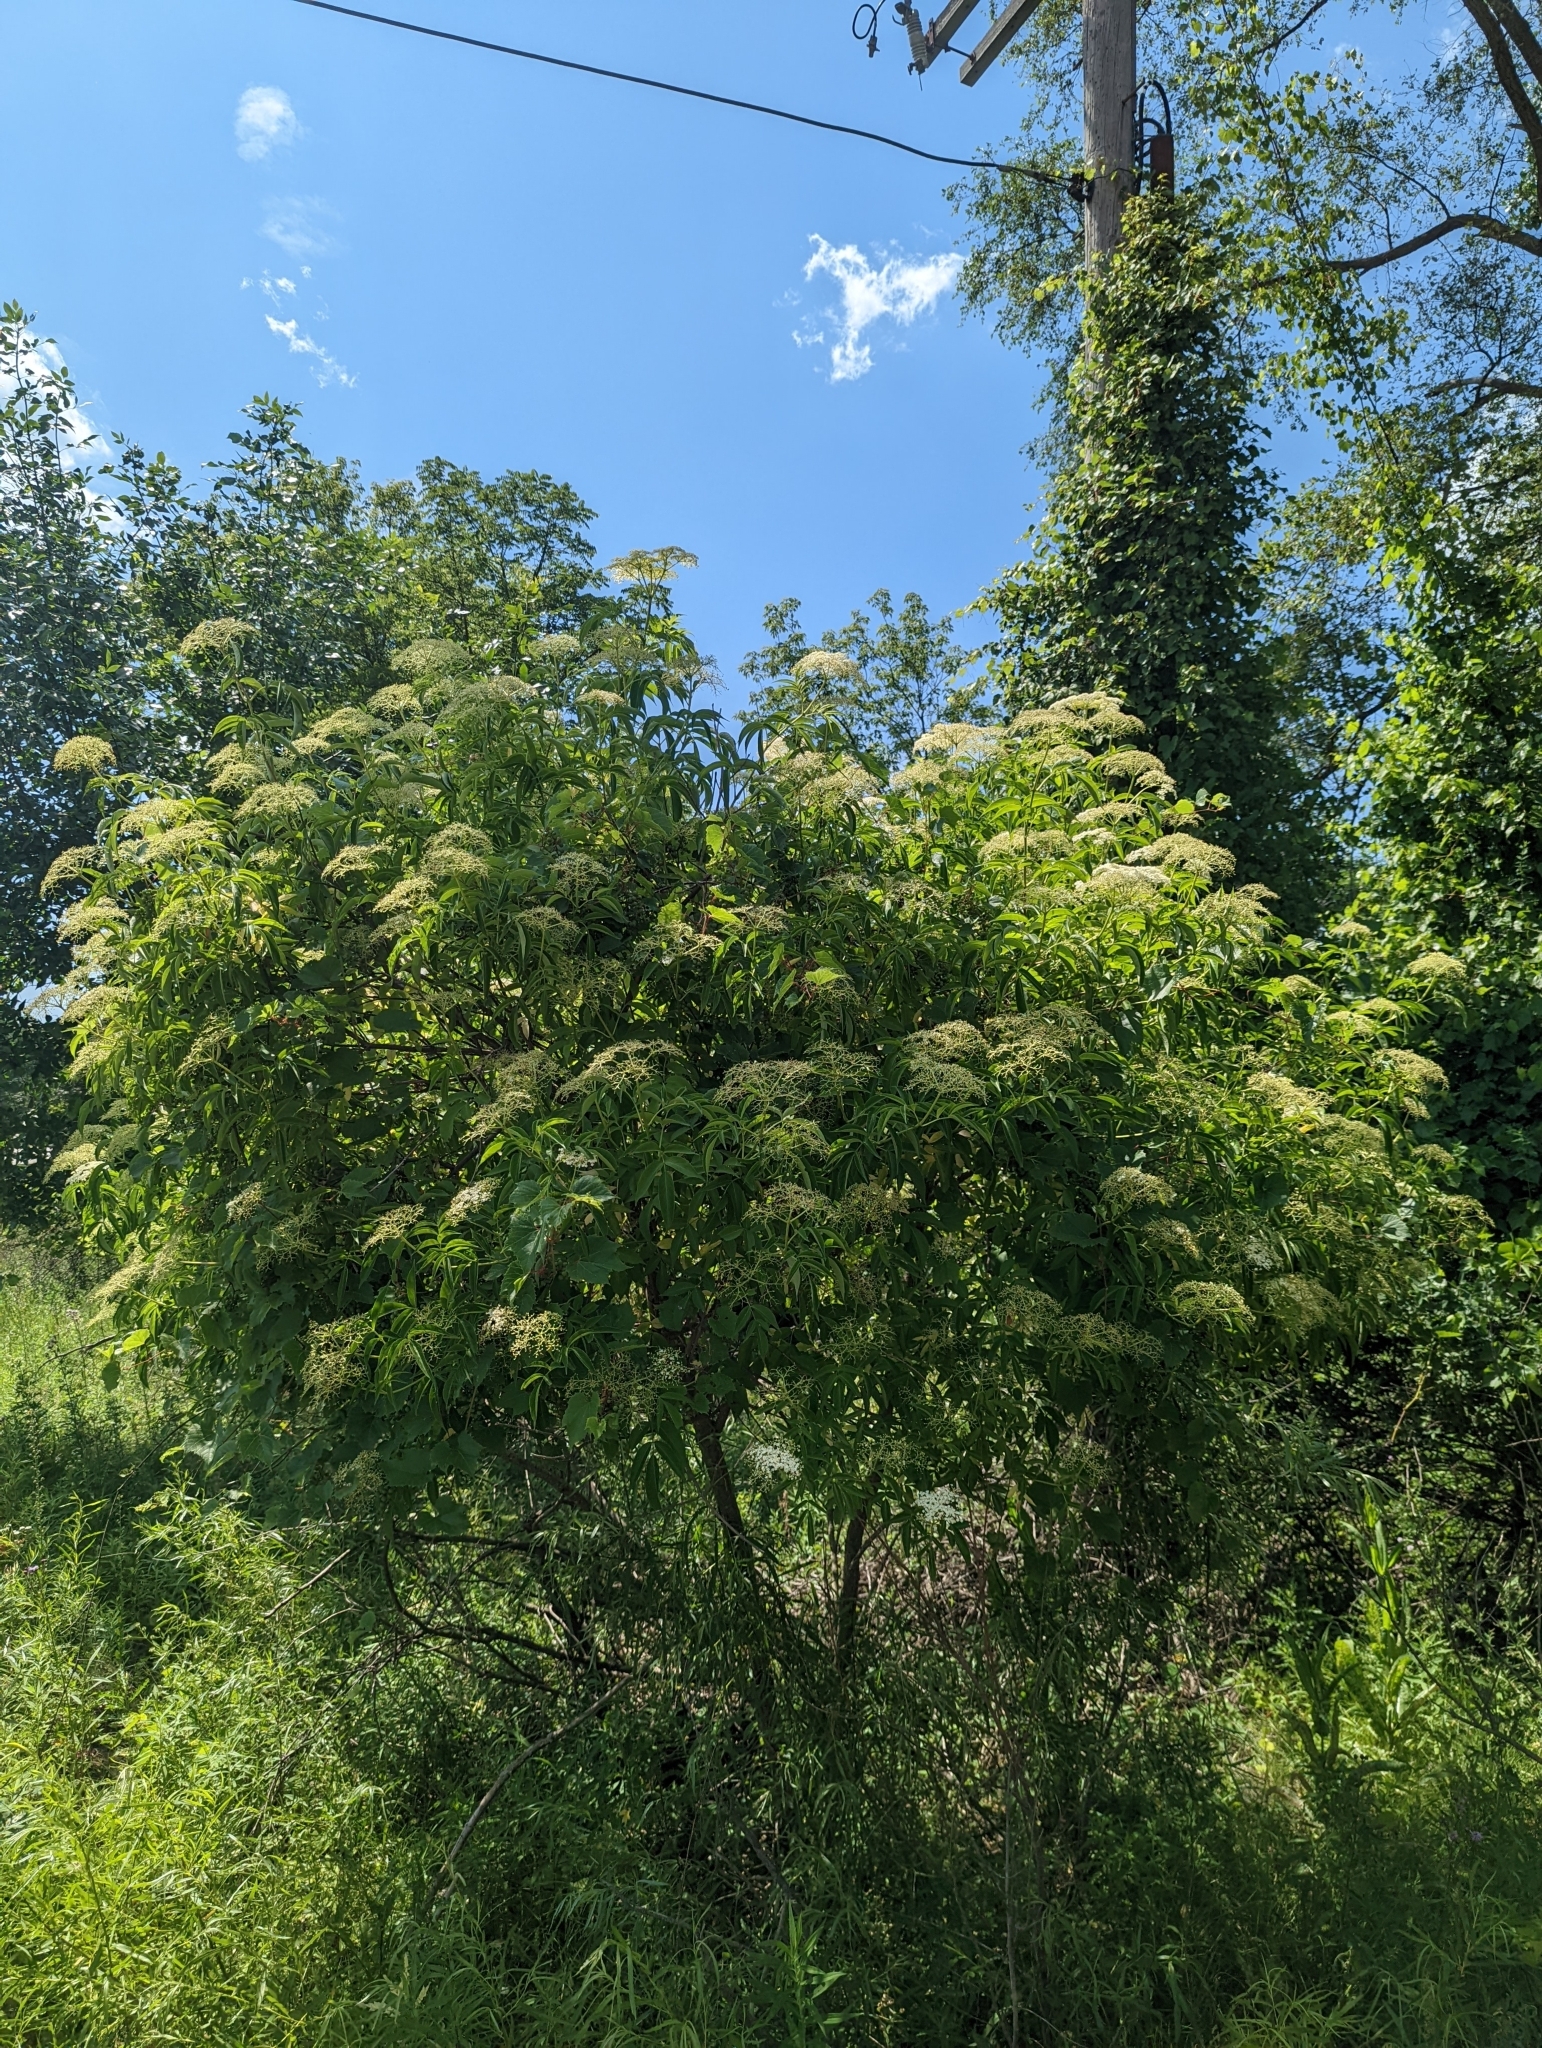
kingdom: Plantae
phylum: Tracheophyta
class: Magnoliopsida
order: Dipsacales
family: Viburnaceae
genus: Sambucus
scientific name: Sambucus canadensis
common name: American elder
